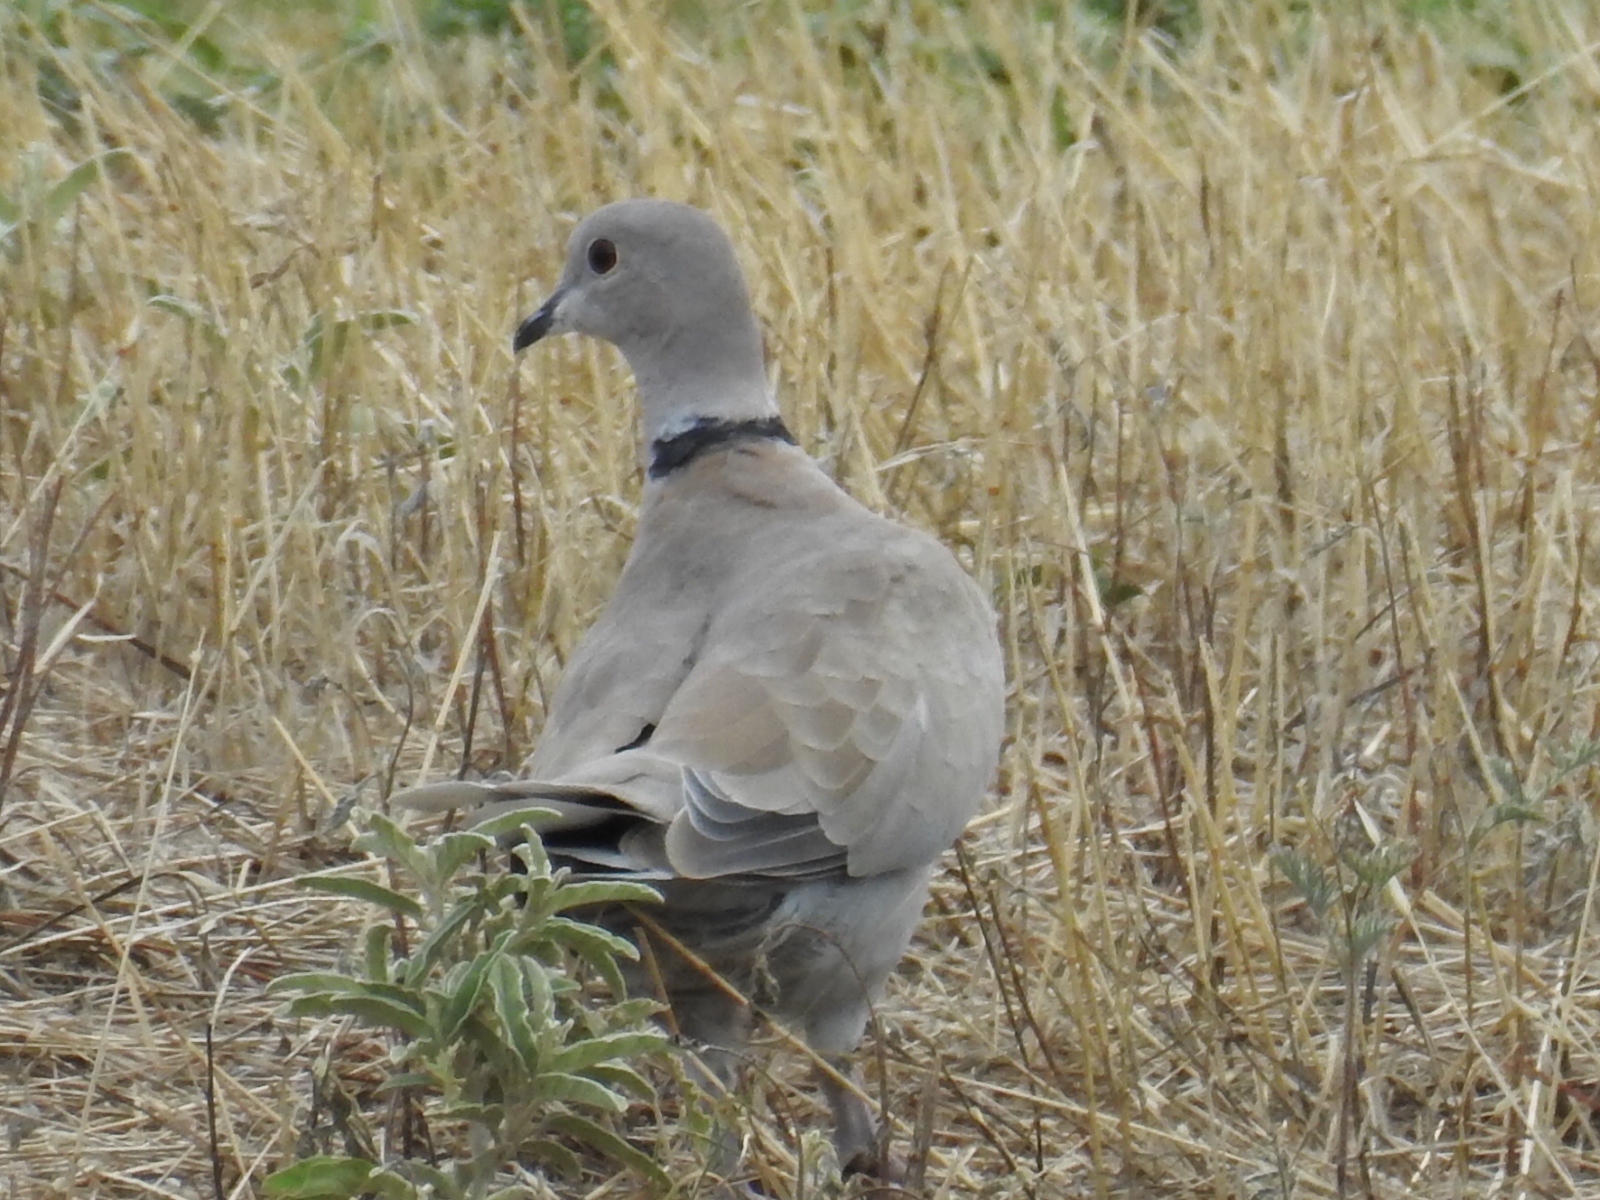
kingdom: Animalia
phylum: Chordata
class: Aves
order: Columbiformes
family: Columbidae
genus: Streptopelia
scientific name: Streptopelia decaocto
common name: Eurasian collared dove
